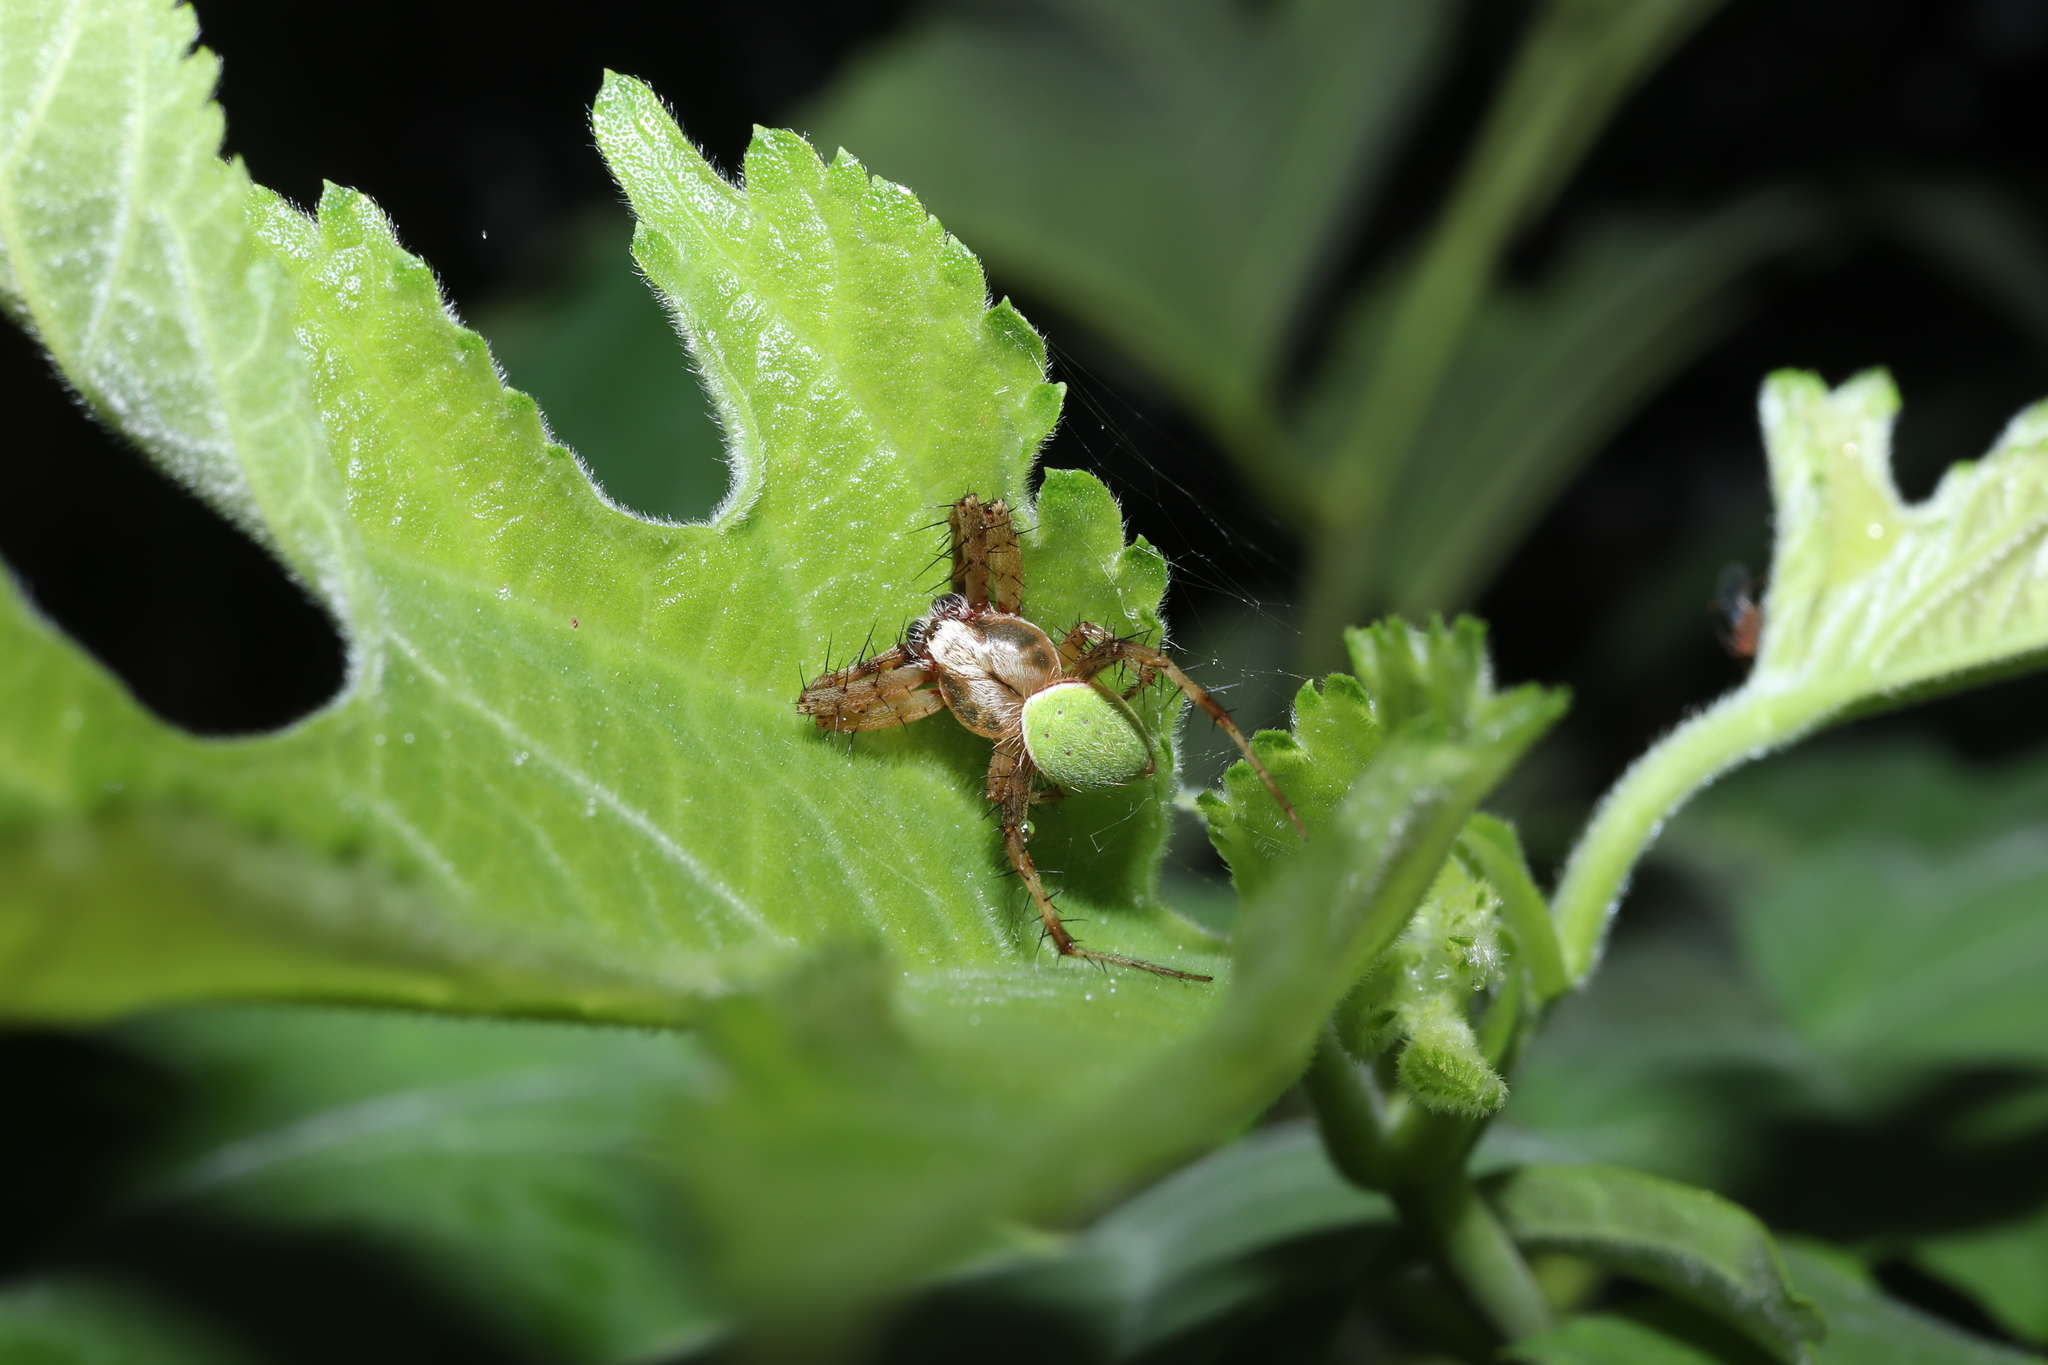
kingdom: Animalia
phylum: Arthropoda
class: Arachnida
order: Araneae
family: Araneidae
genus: Neoscona
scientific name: Neoscona mellotteei
